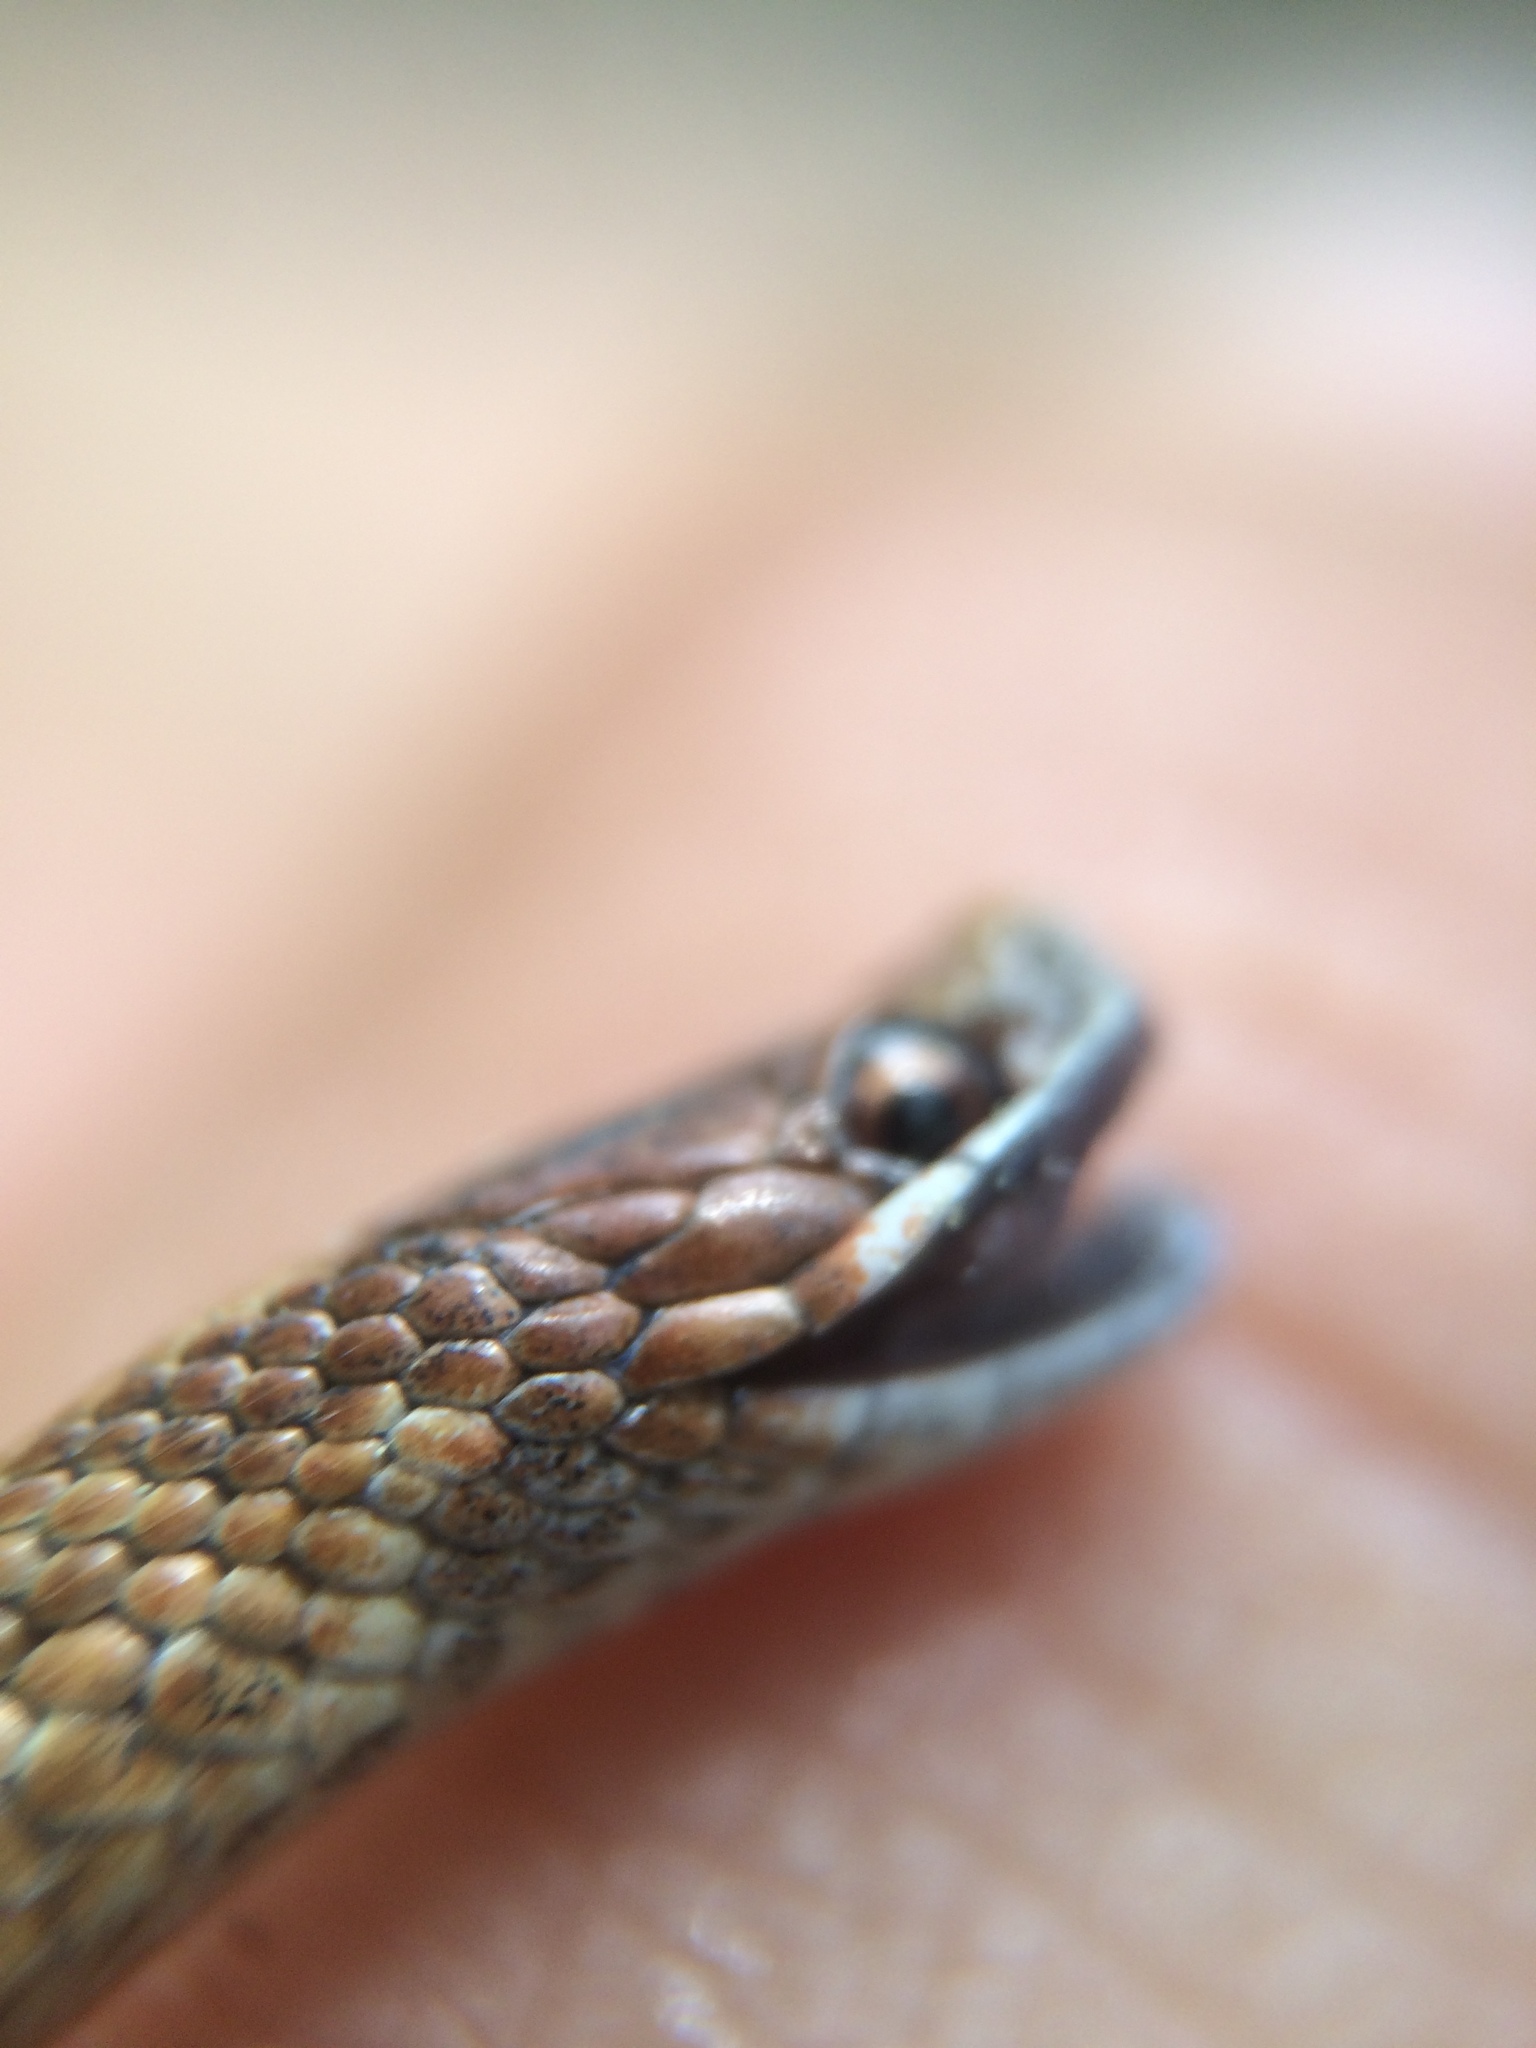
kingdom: Animalia
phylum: Chordata
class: Squamata
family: Colubridae
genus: Storeria
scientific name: Storeria occipitomaculata
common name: Redbelly snake
